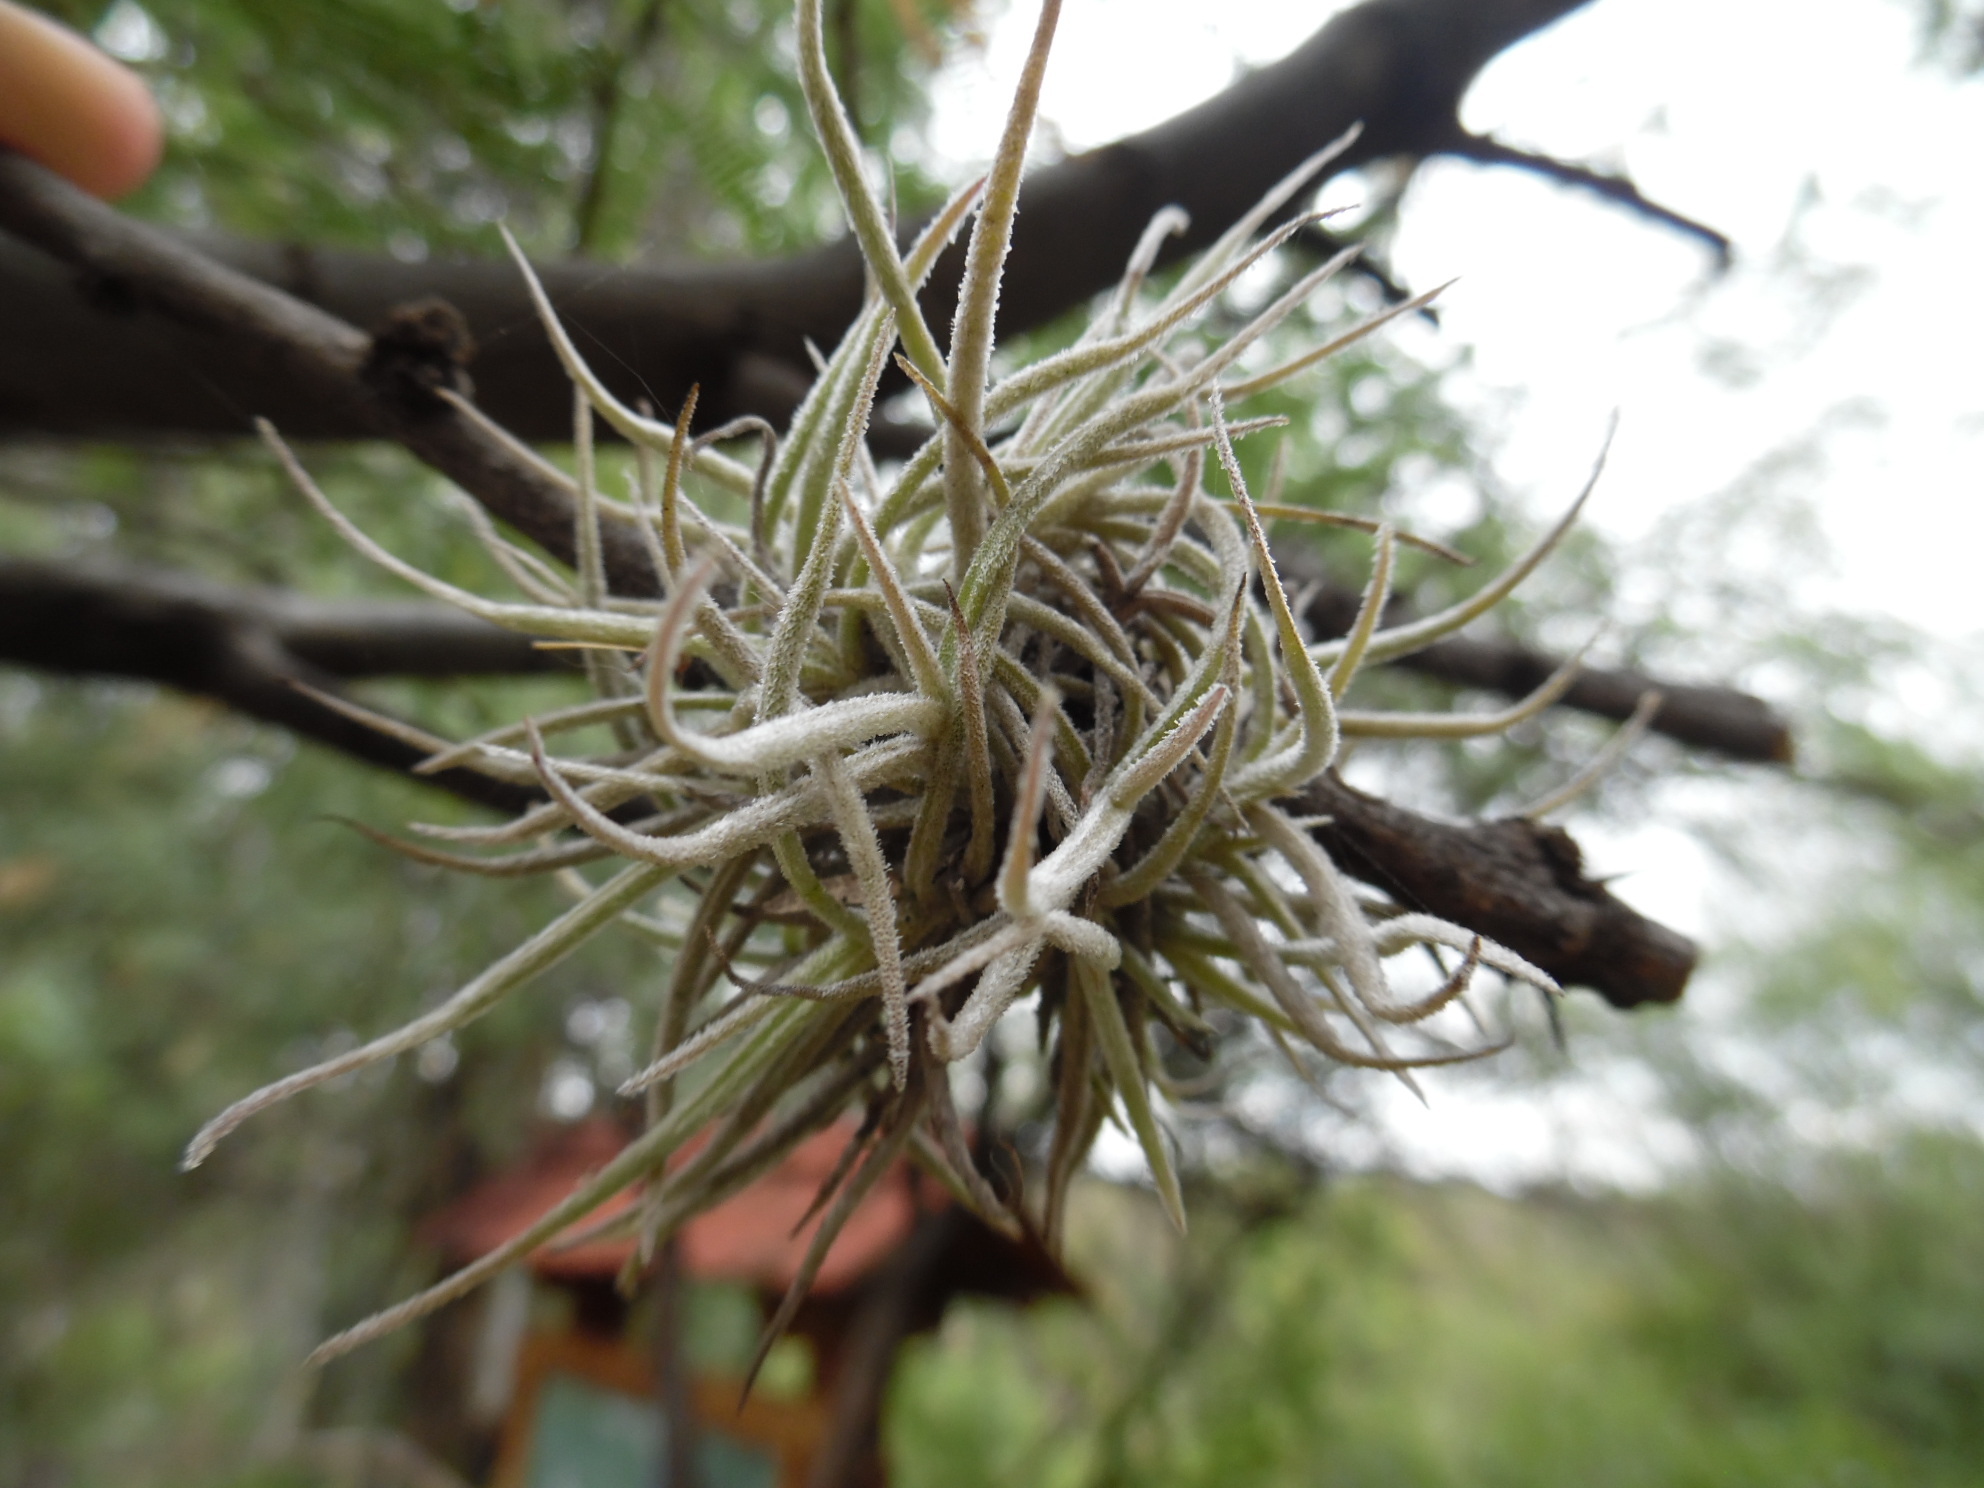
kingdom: Plantae
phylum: Tracheophyta
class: Liliopsida
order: Poales
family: Bromeliaceae
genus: Tillandsia
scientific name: Tillandsia recurvata
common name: Small ballmoss
